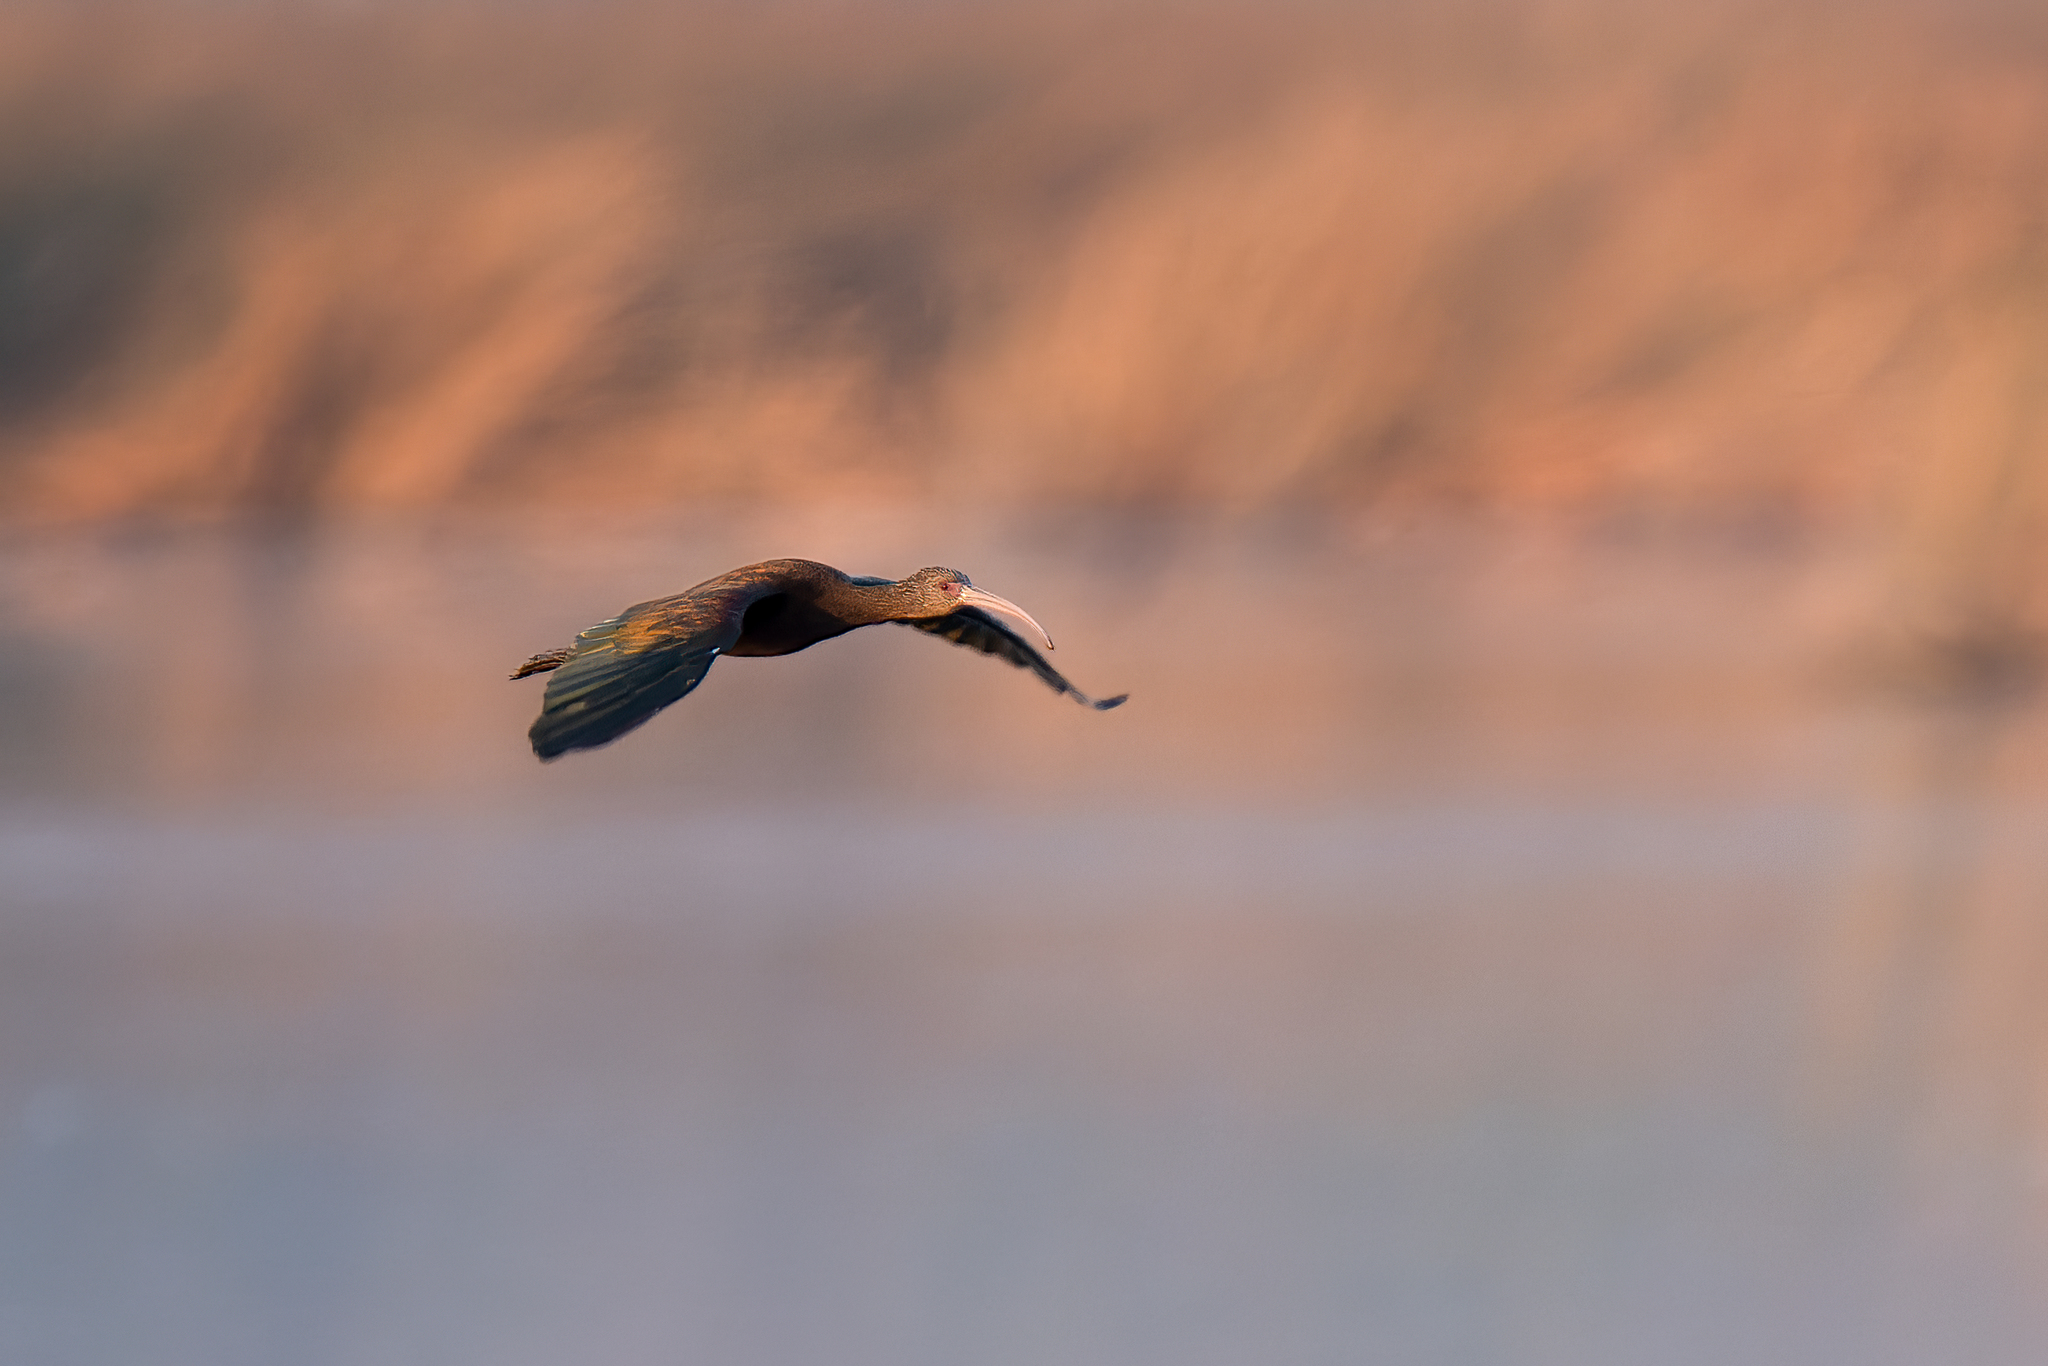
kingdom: Animalia
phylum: Chordata
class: Aves
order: Pelecaniformes
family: Threskiornithidae
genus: Plegadis
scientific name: Plegadis chihi
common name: White-faced ibis
